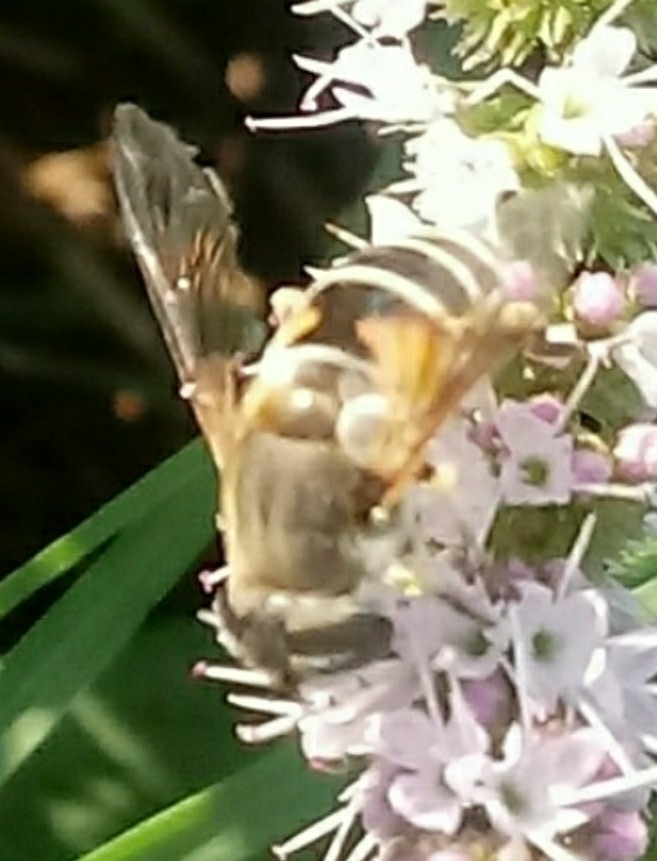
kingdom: Animalia
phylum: Arthropoda
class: Insecta
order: Diptera
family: Syrphidae
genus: Eristalis
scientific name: Eristalis arbustorum
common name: Hover fly
